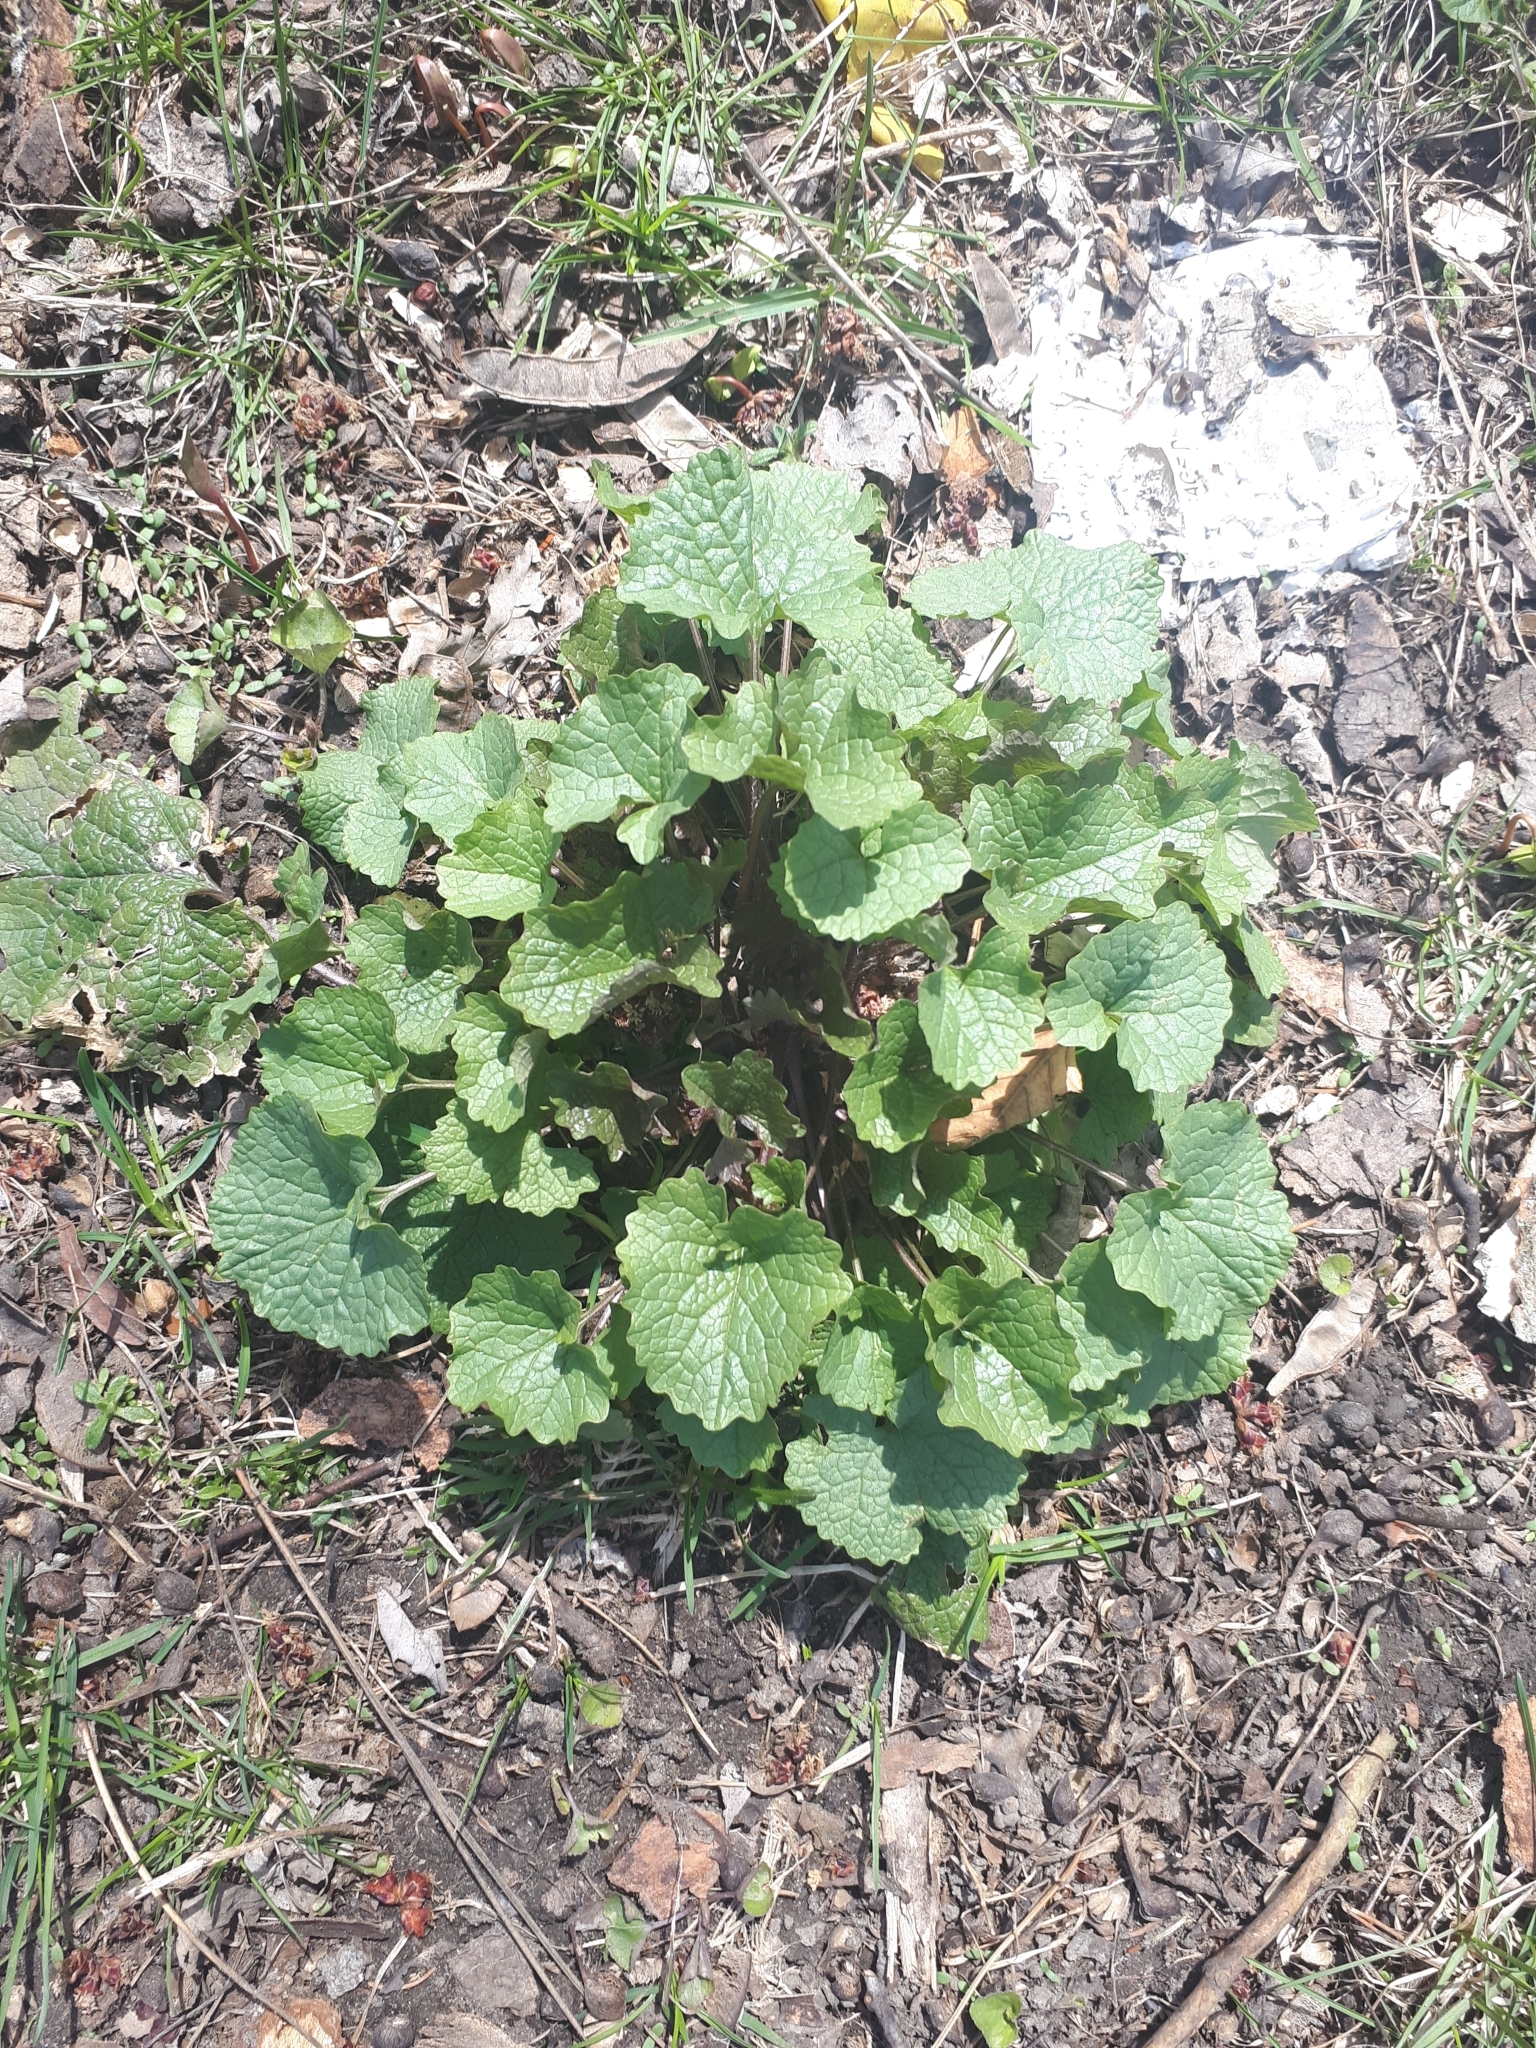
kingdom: Plantae
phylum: Tracheophyta
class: Magnoliopsida
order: Brassicales
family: Brassicaceae
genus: Alliaria
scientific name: Alliaria petiolata
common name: Garlic mustard
